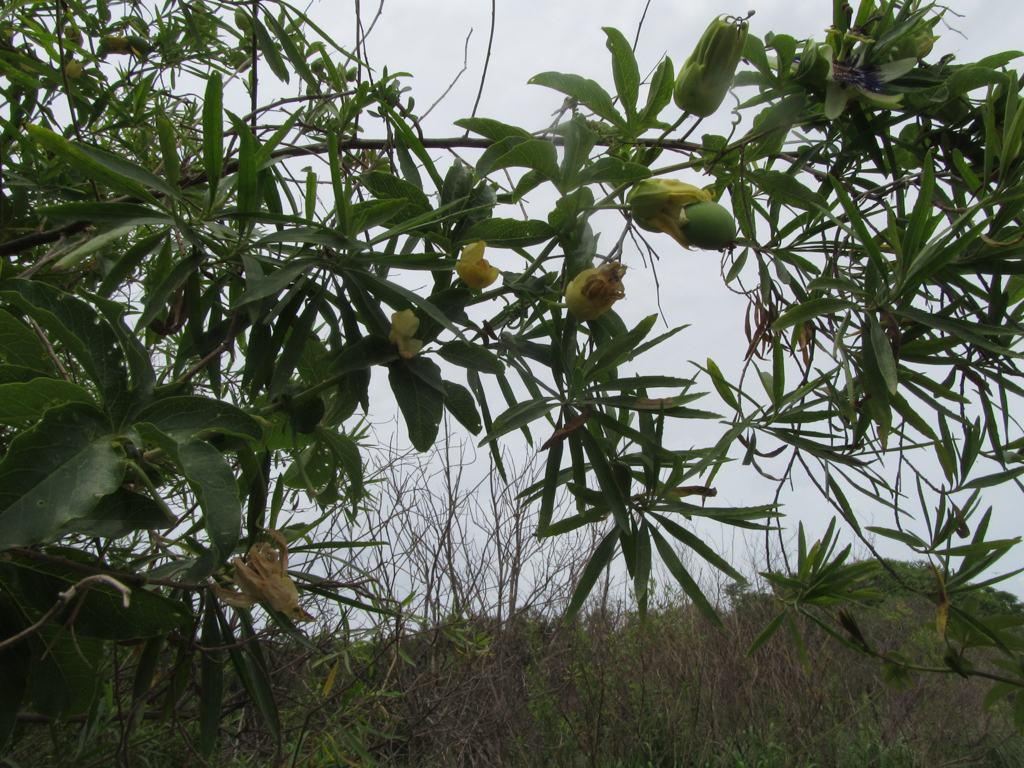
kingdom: Plantae
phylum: Tracheophyta
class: Magnoliopsida
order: Malpighiales
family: Passifloraceae
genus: Passiflora
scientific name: Passiflora caerulea
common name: Blue passionflower
